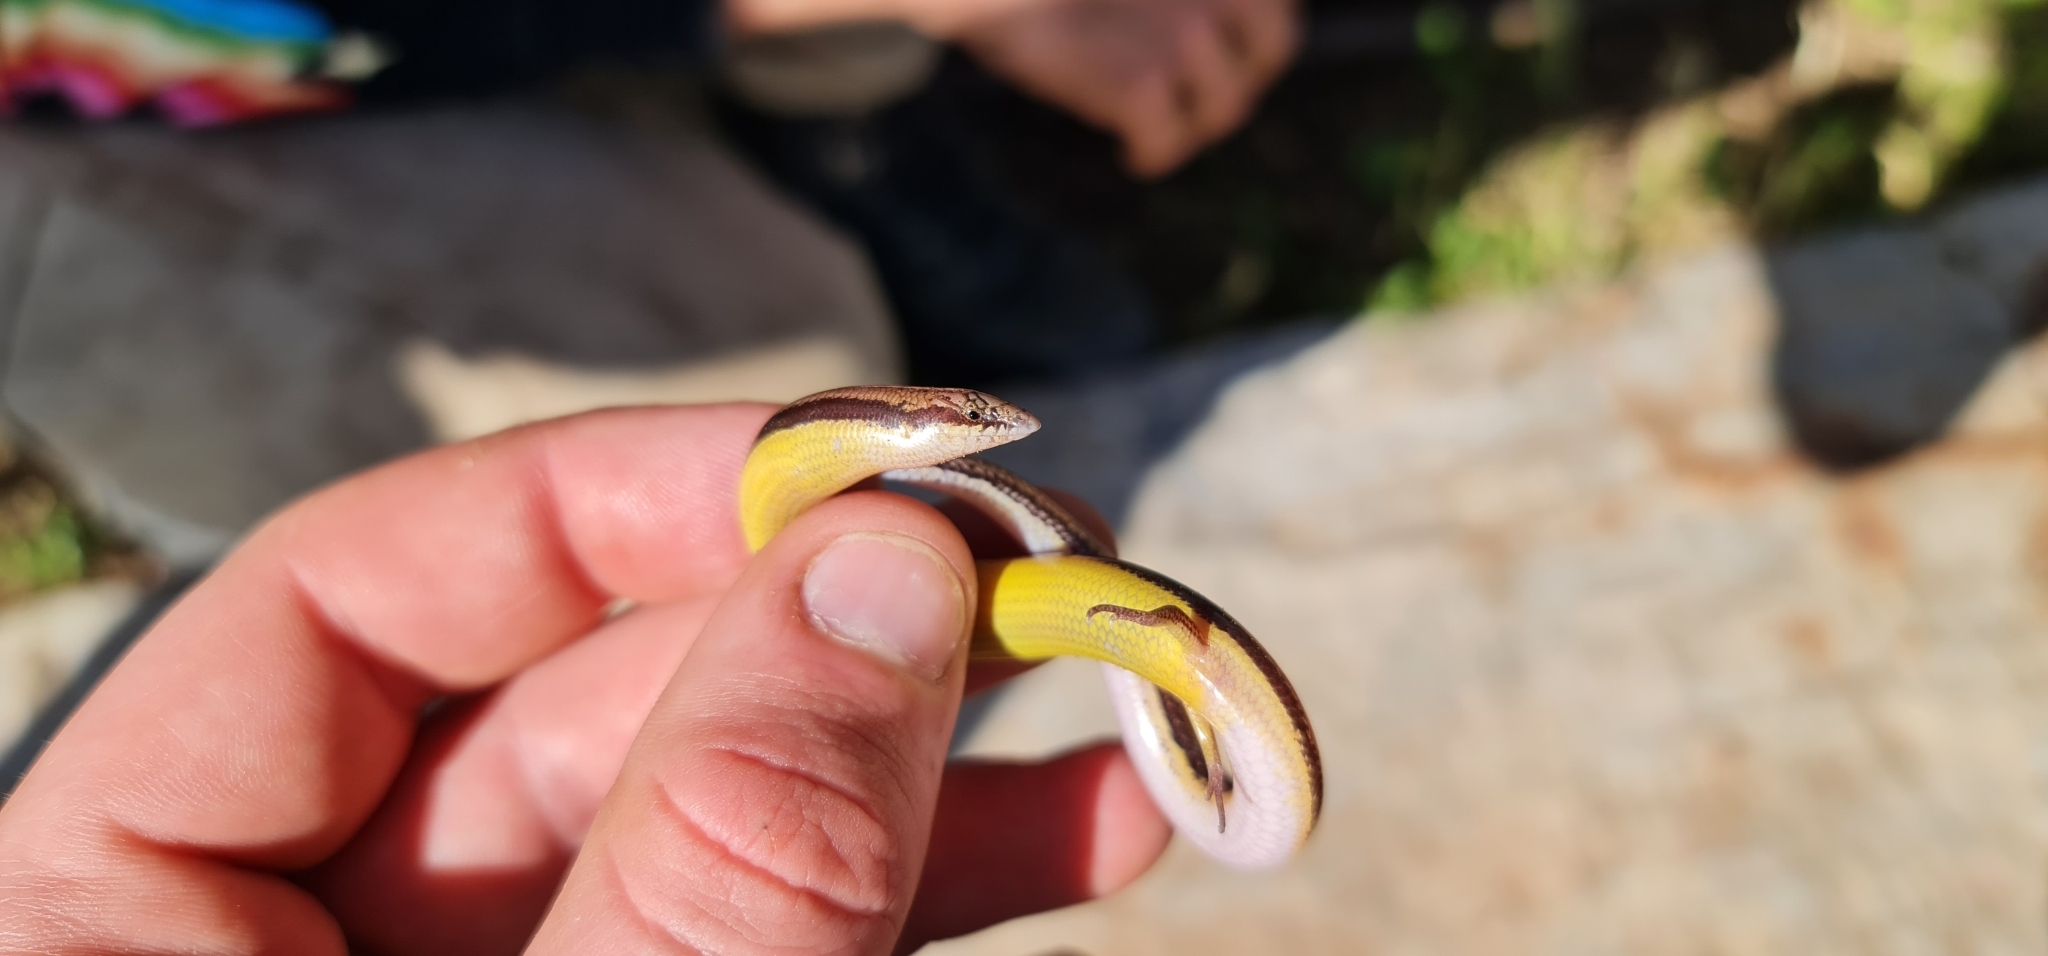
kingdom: Animalia
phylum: Chordata
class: Squamata
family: Scincidae
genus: Lerista
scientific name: Lerista edwardsae
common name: Myall slider
